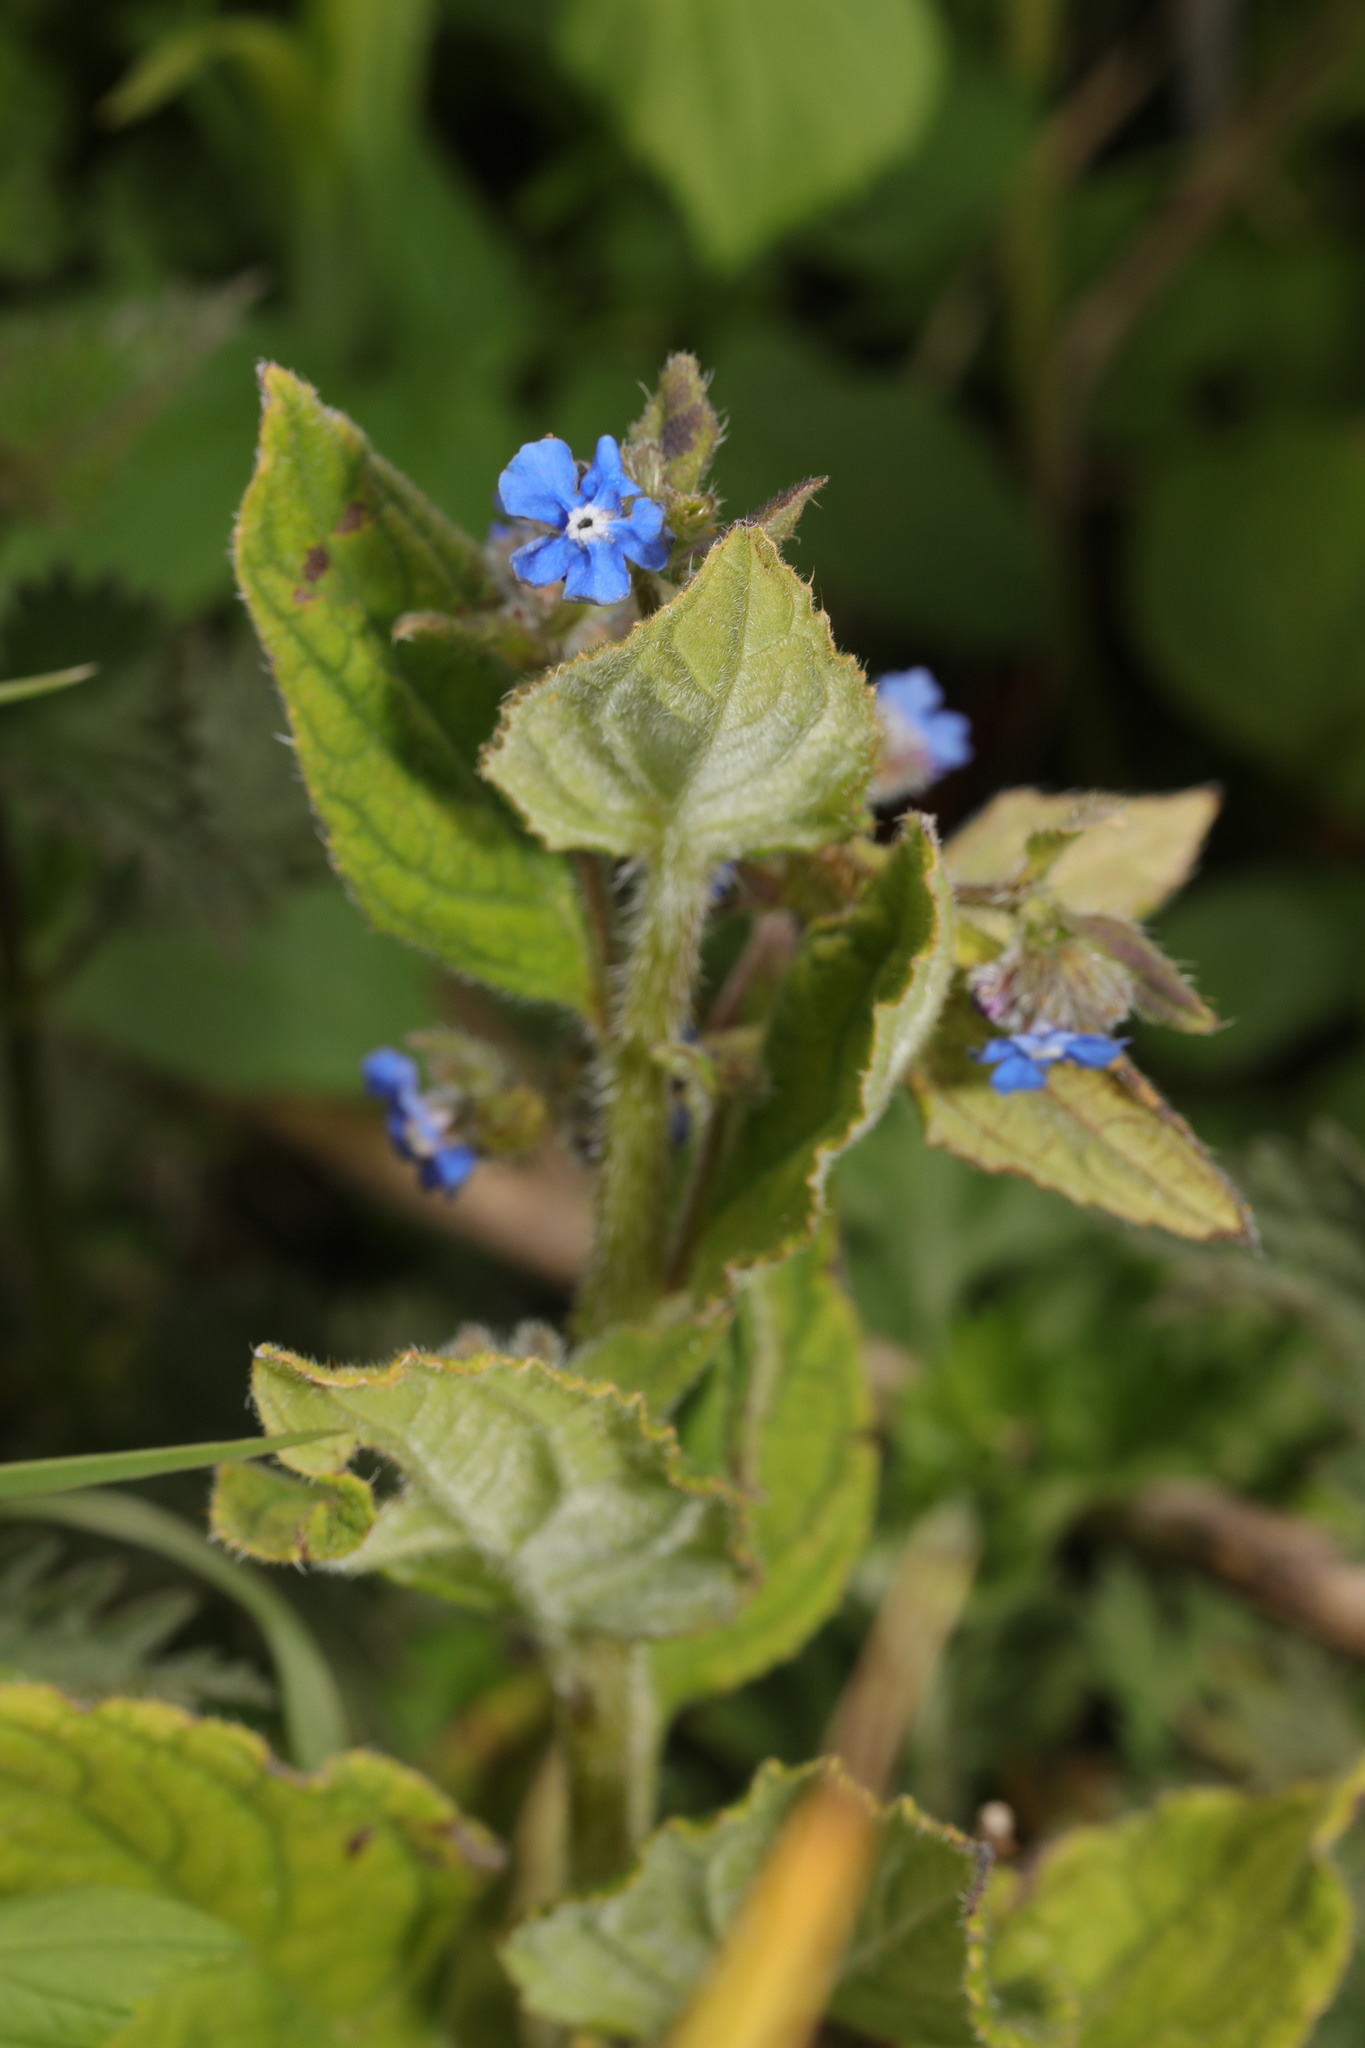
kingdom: Plantae
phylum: Tracheophyta
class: Magnoliopsida
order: Boraginales
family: Boraginaceae
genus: Pentaglottis
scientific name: Pentaglottis sempervirens
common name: Green alkanet
